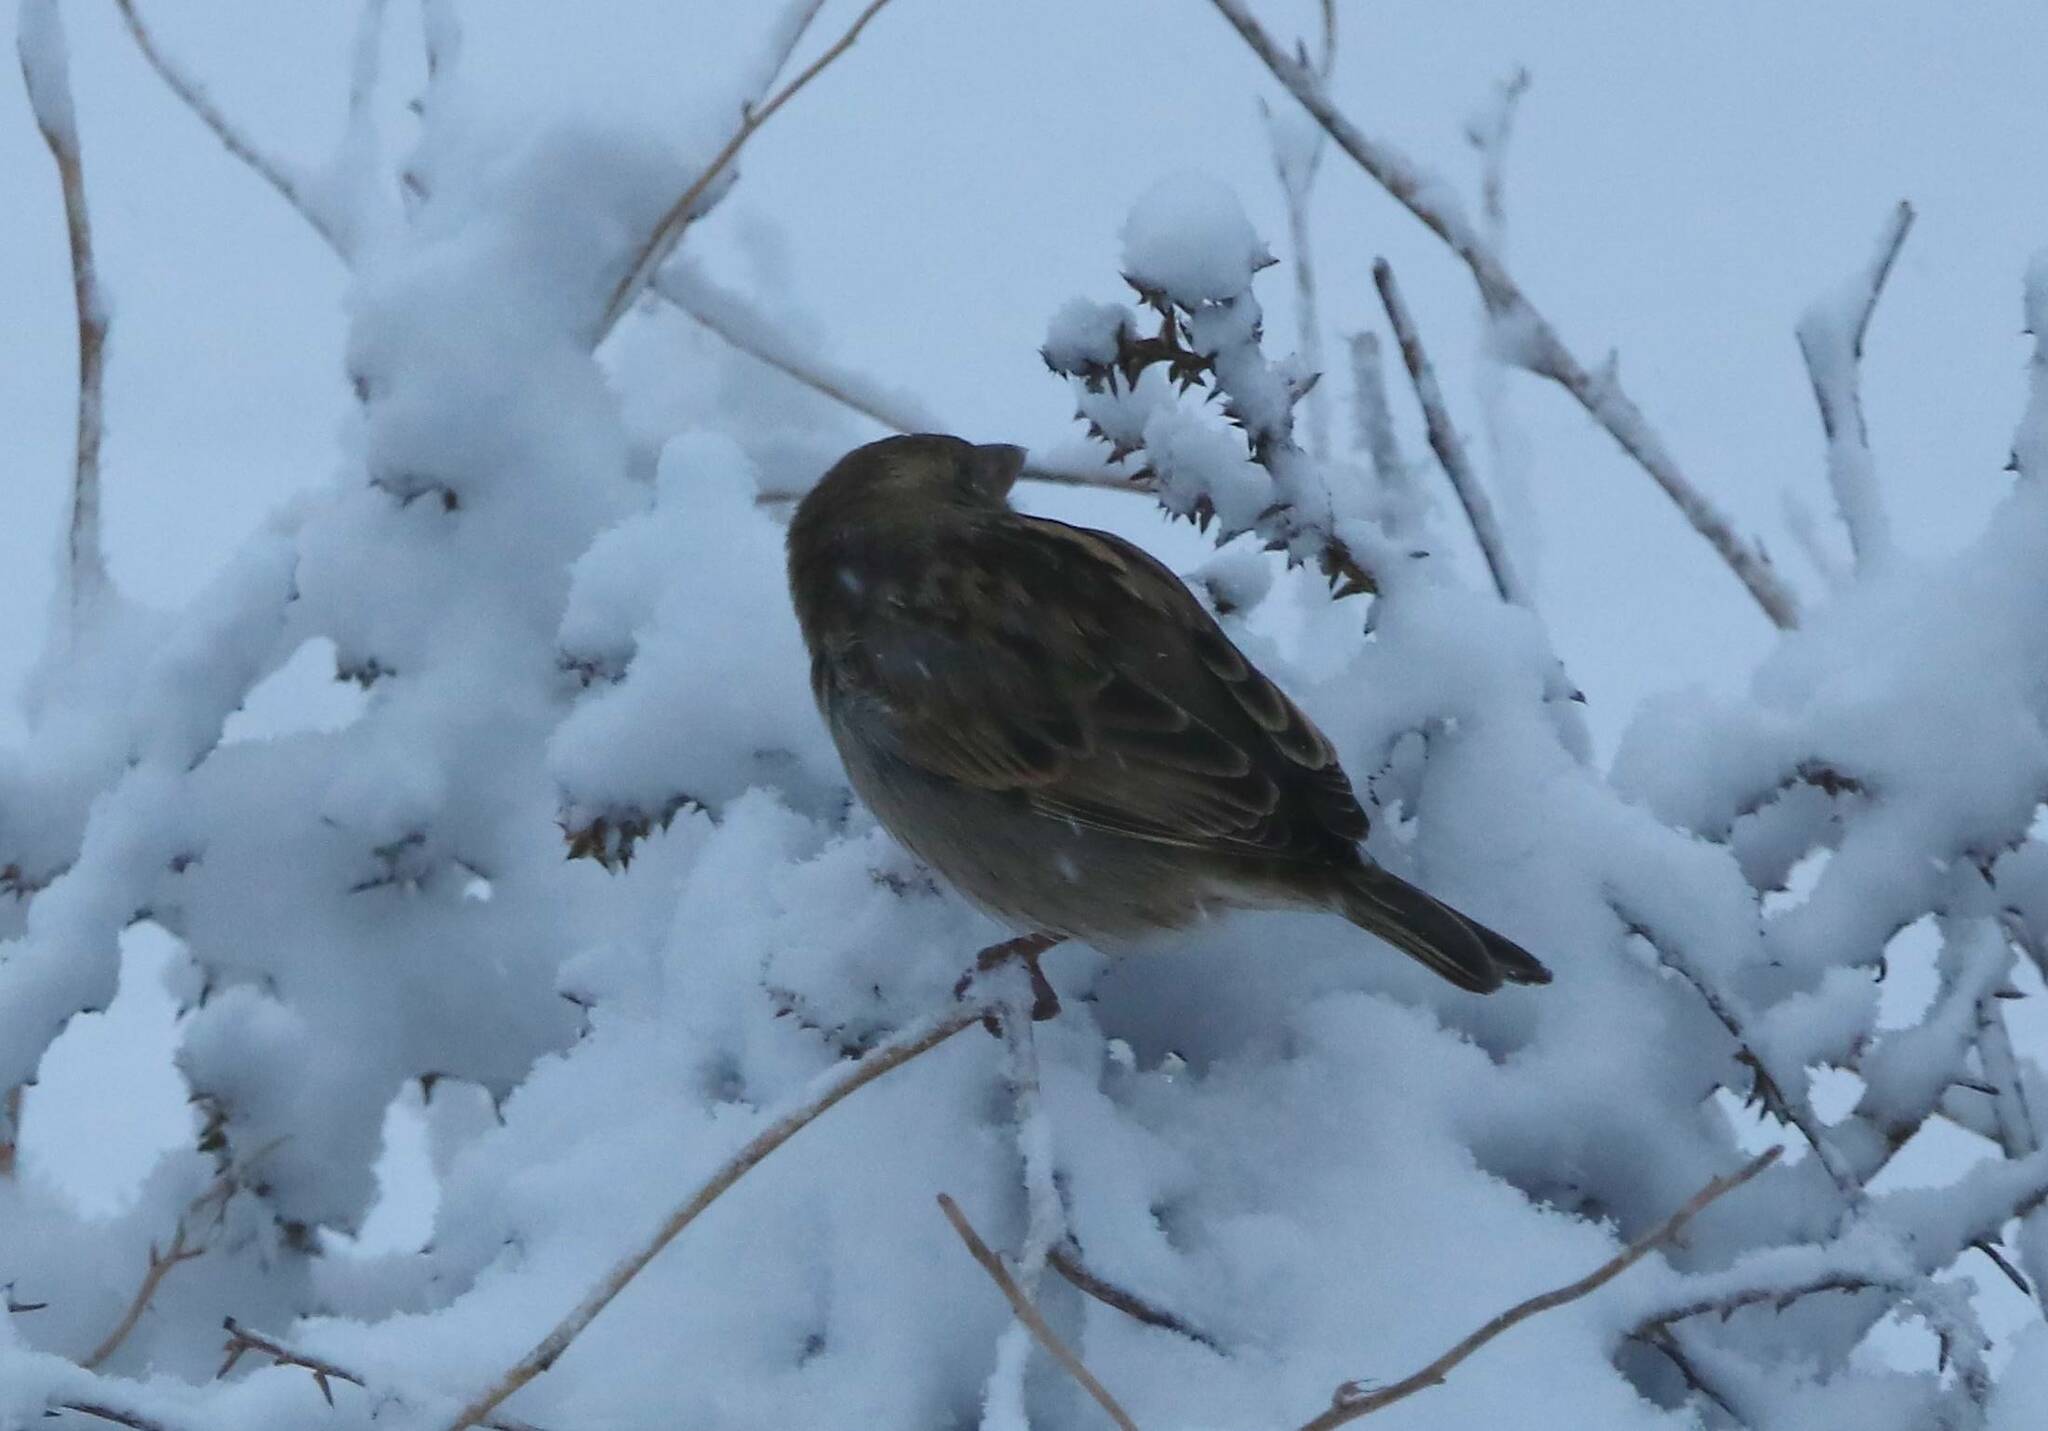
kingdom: Animalia
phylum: Chordata
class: Aves
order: Passeriformes
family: Passeridae
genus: Passer
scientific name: Passer hispaniolensis
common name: Spanish sparrow
